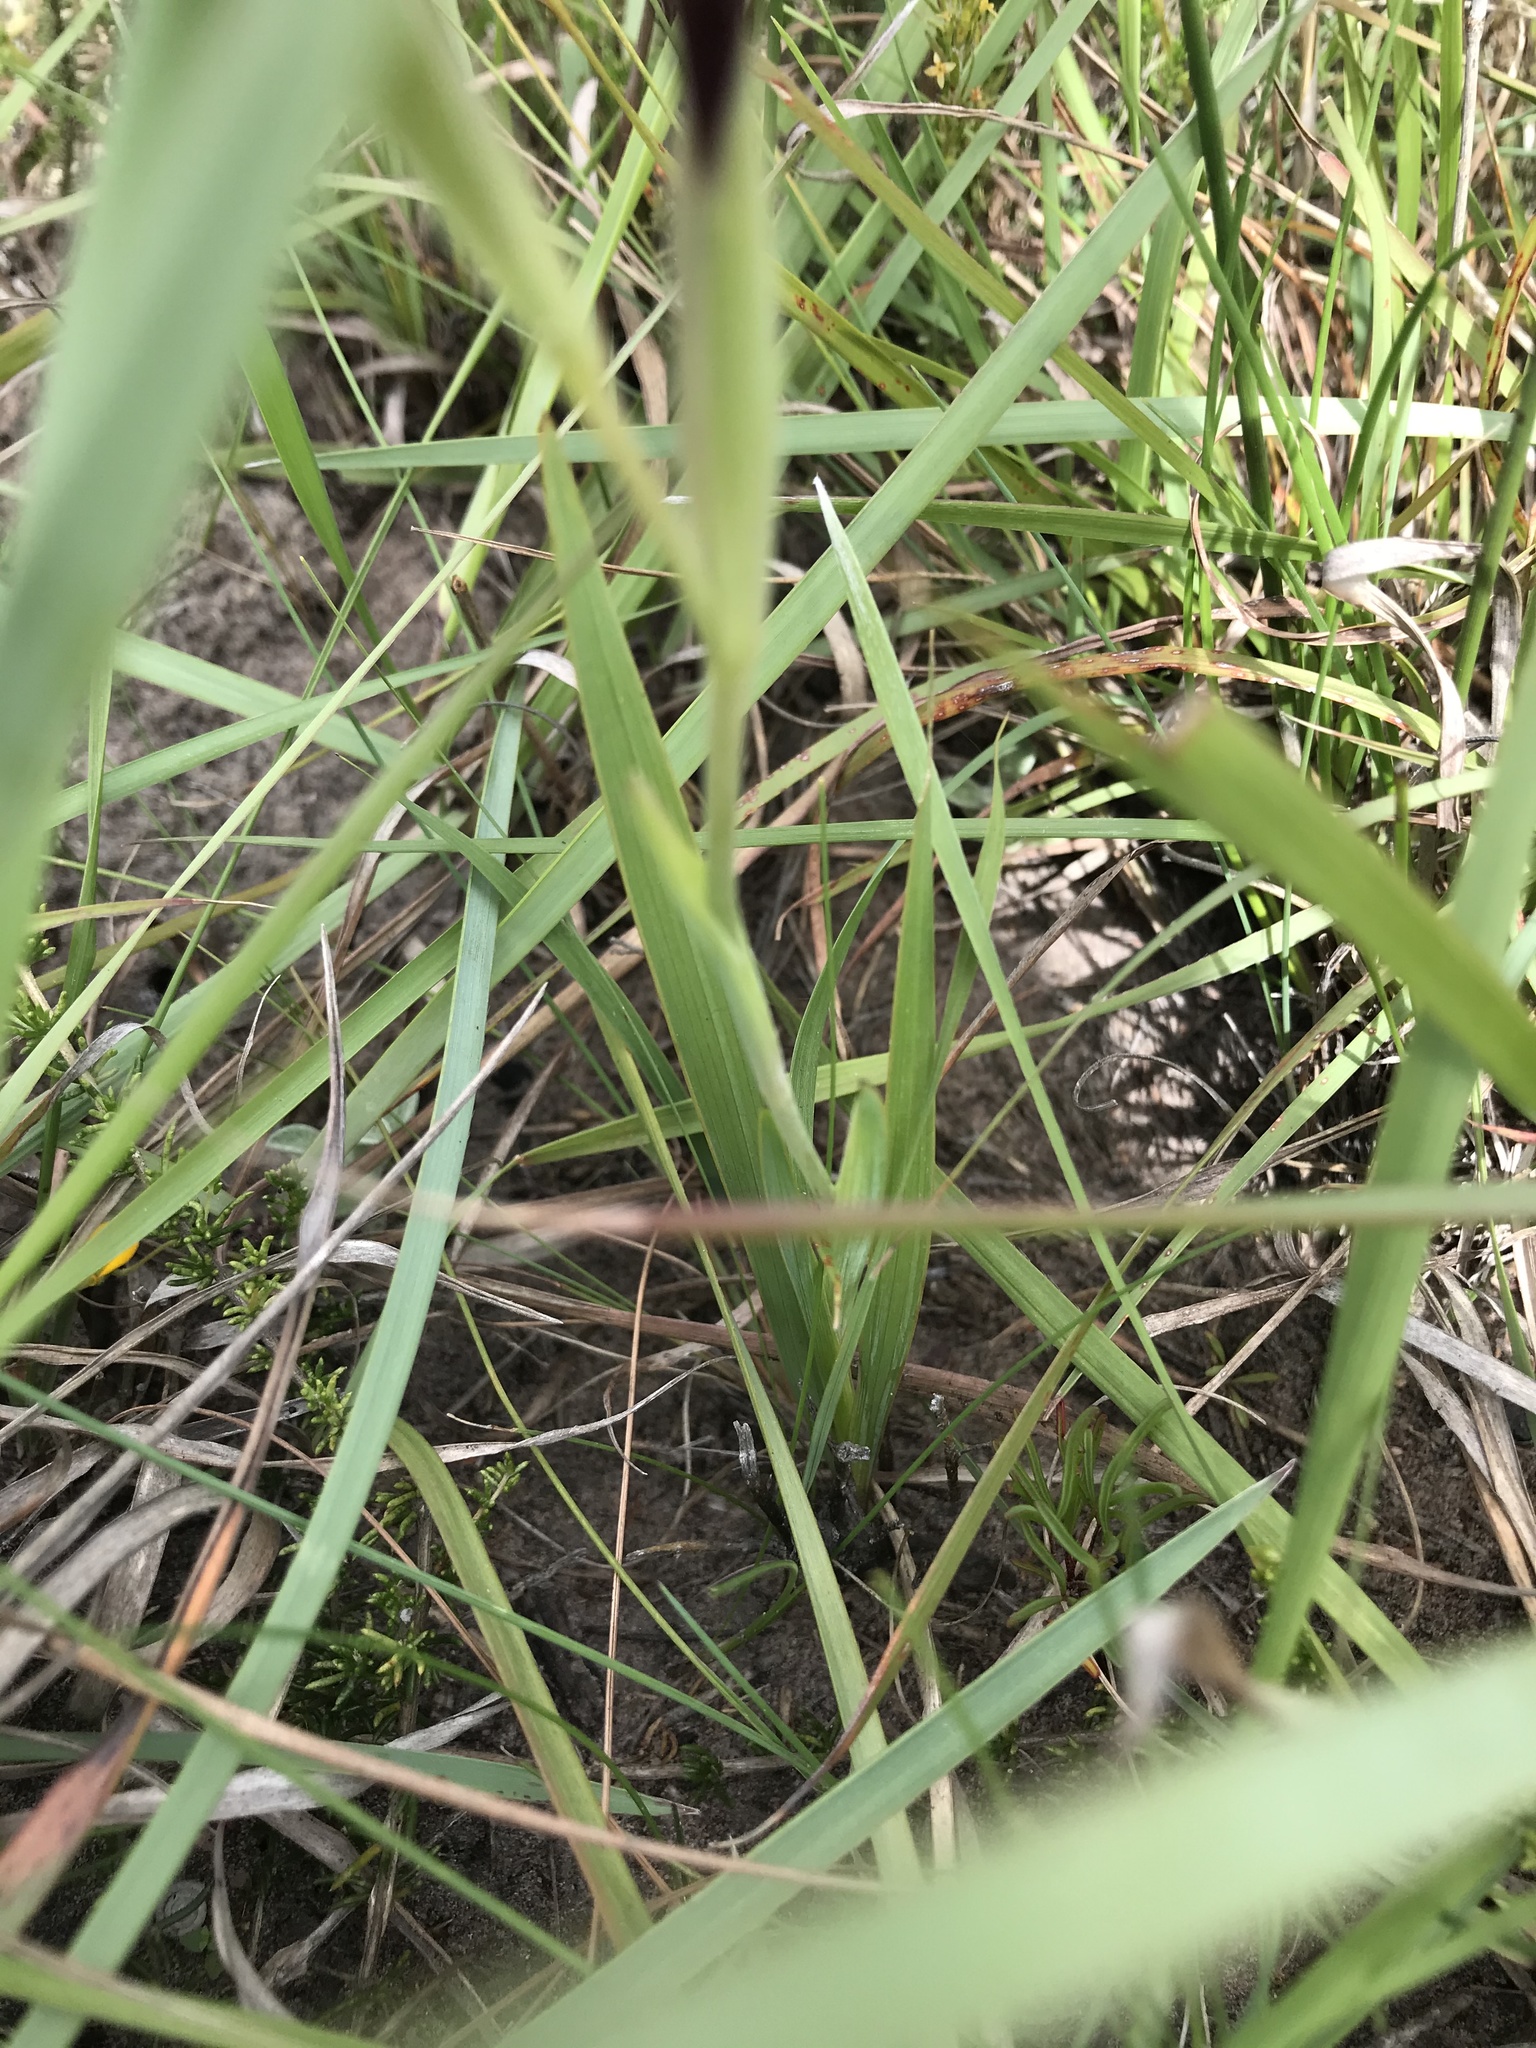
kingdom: Plantae
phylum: Tracheophyta
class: Liliopsida
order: Asparagales
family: Iridaceae
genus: Gladiolus
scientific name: Gladiolus floribundus
